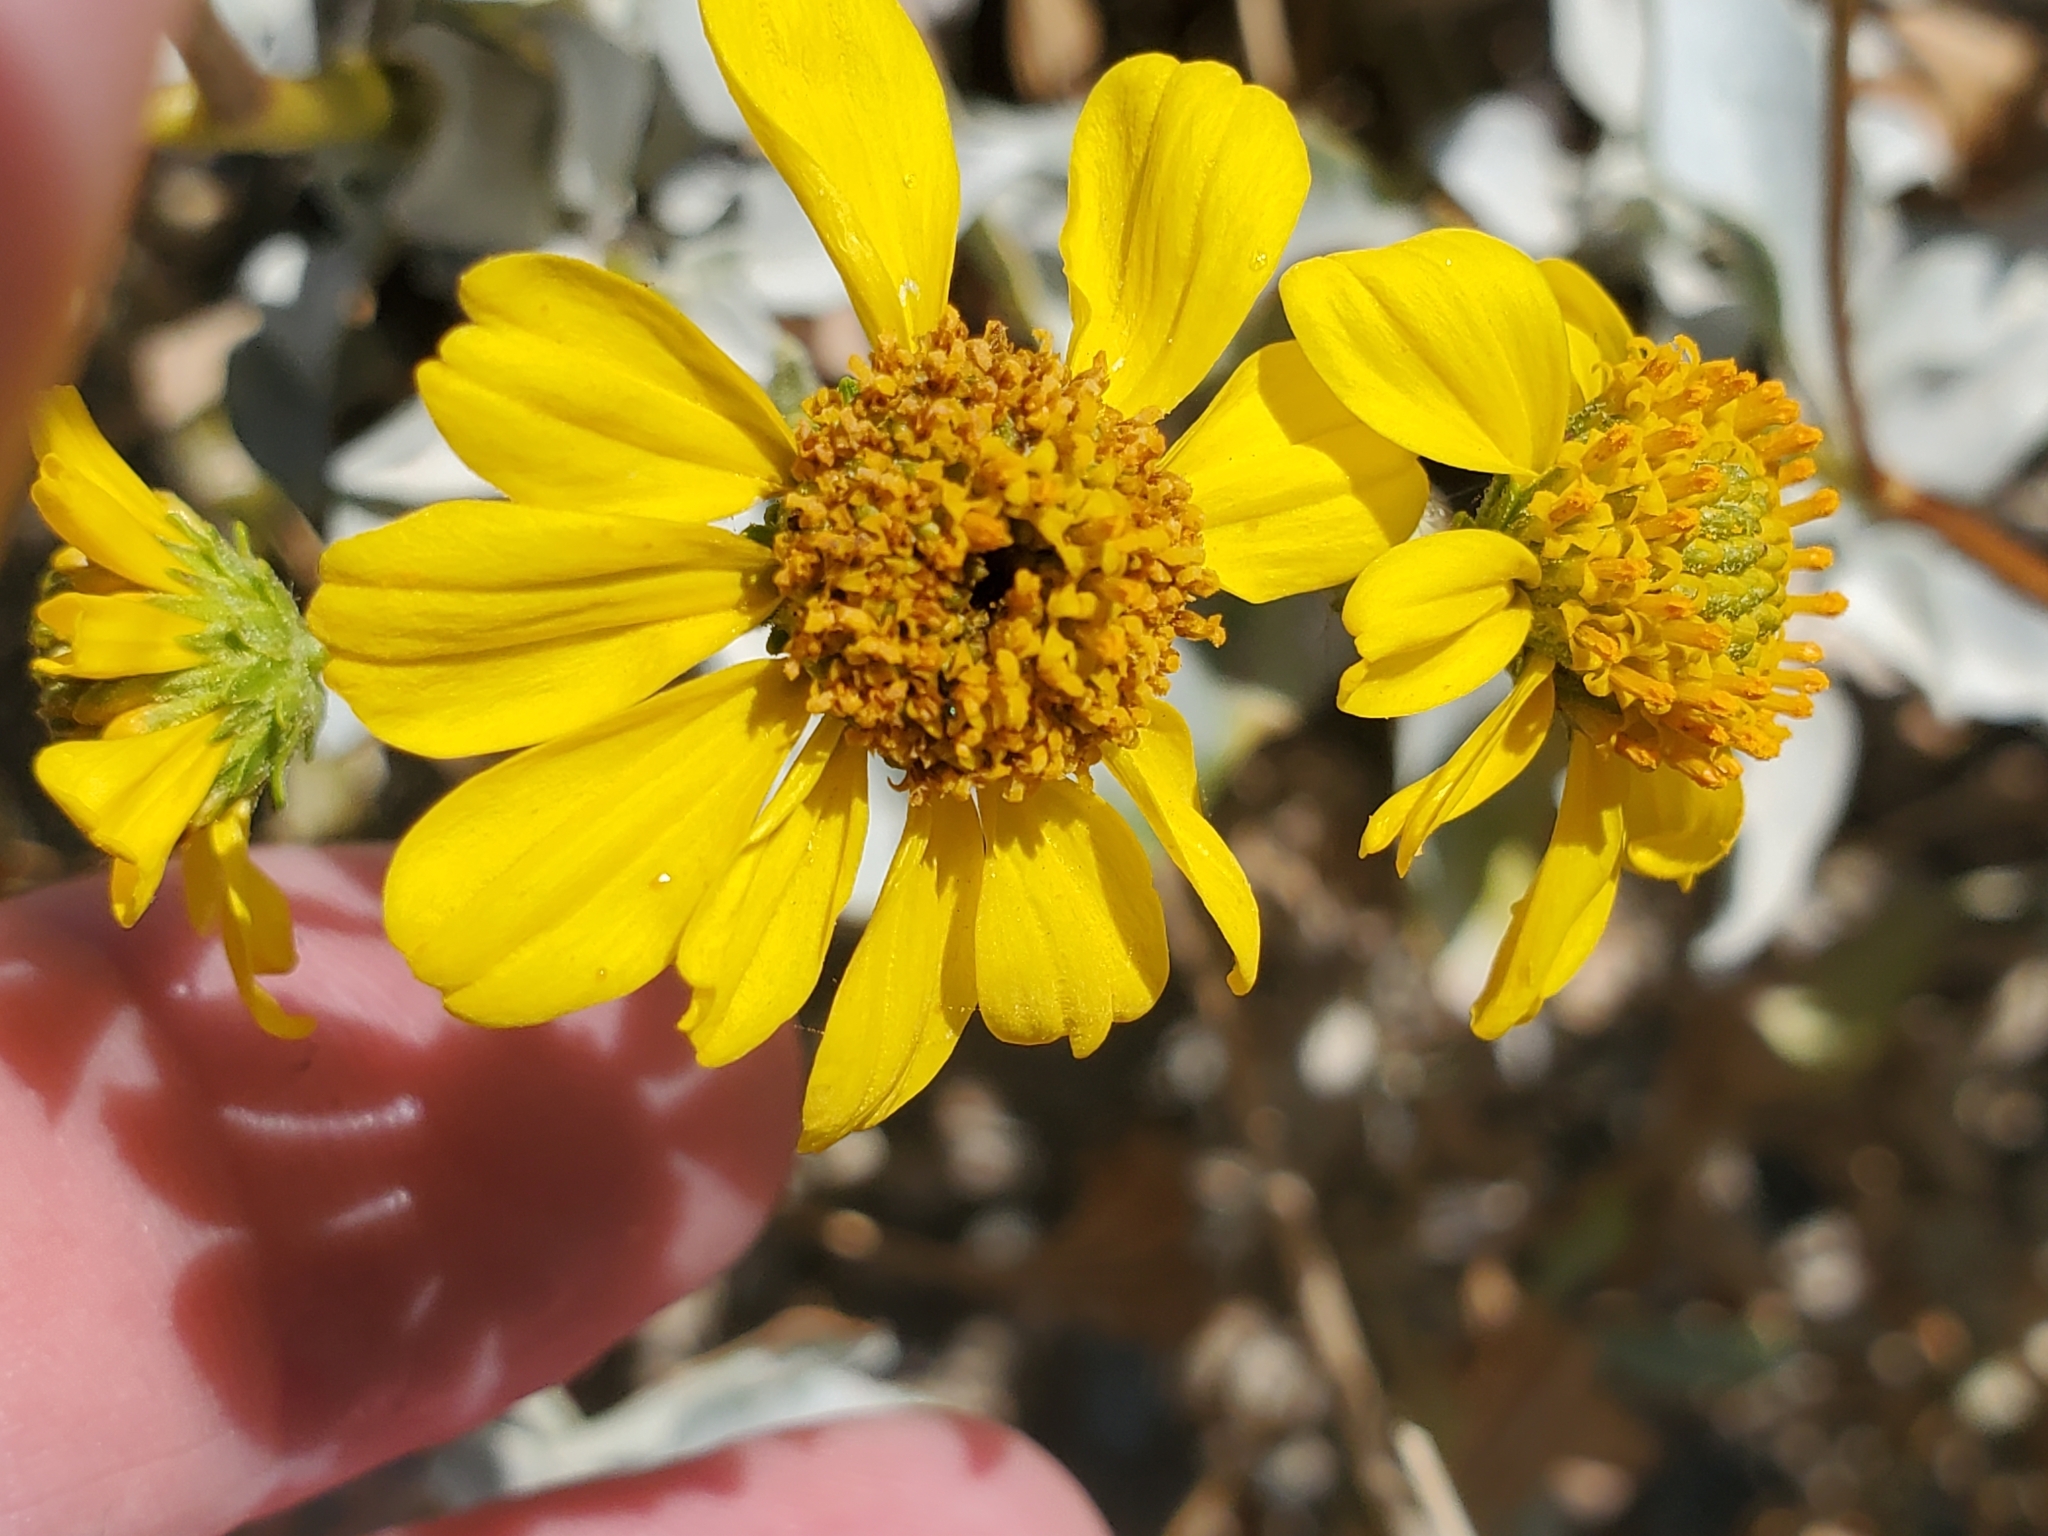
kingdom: Plantae
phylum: Tracheophyta
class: Magnoliopsida
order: Asterales
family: Asteraceae
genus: Encelia
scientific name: Encelia farinosa
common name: Brittlebush
